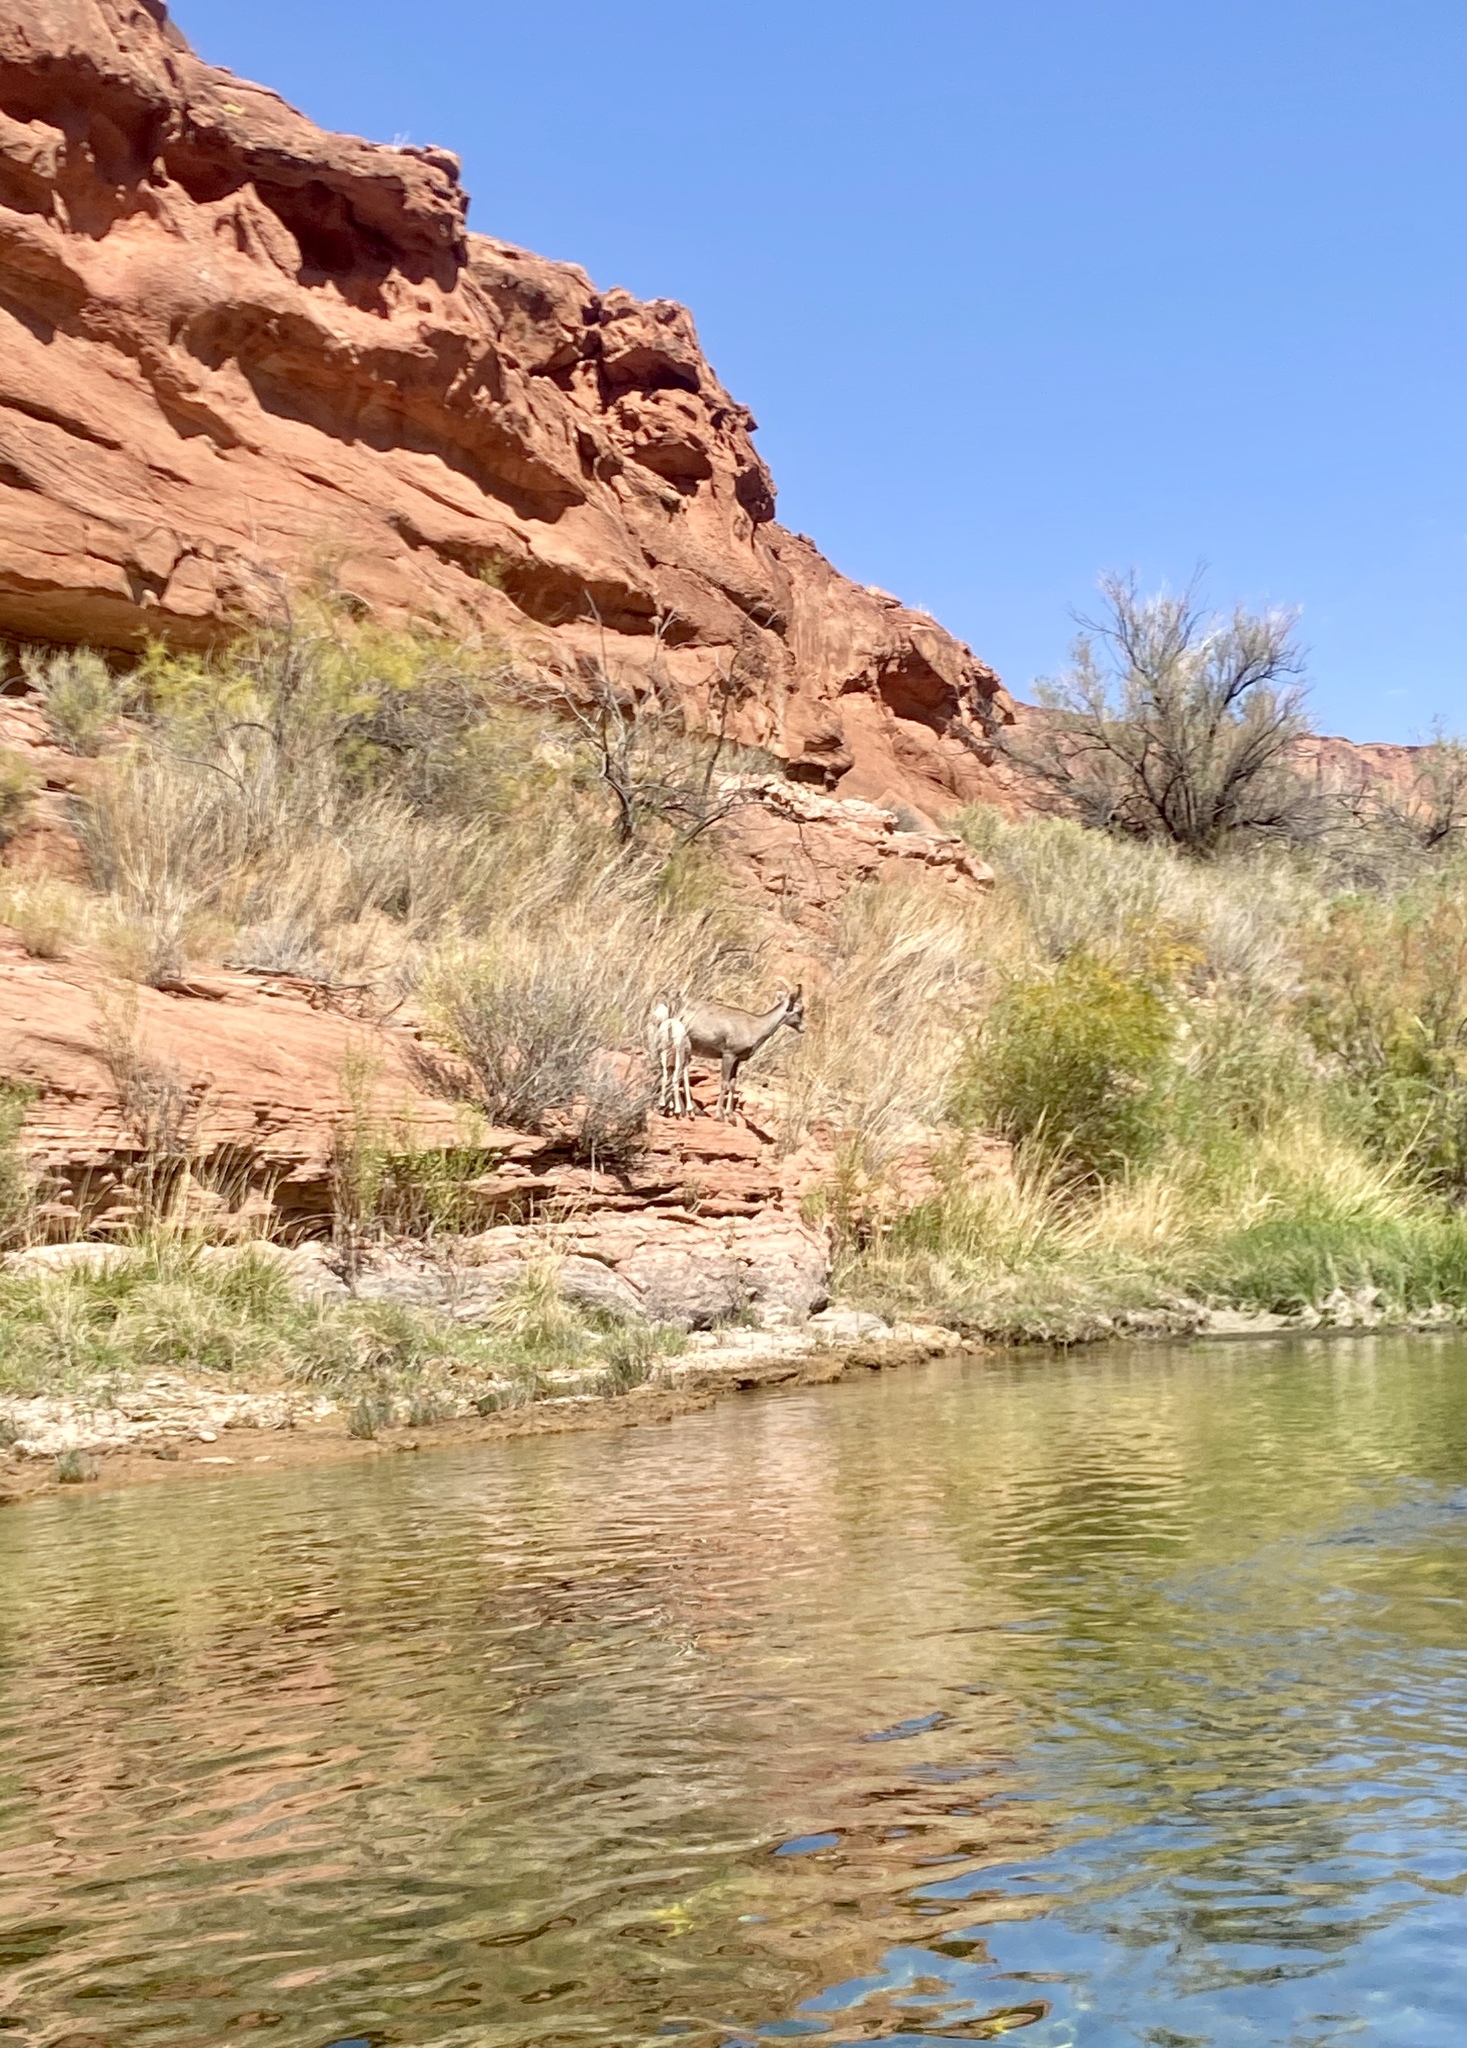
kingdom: Animalia
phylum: Chordata
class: Mammalia
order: Artiodactyla
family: Bovidae
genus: Ovis
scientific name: Ovis canadensis
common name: Bighorn sheep
